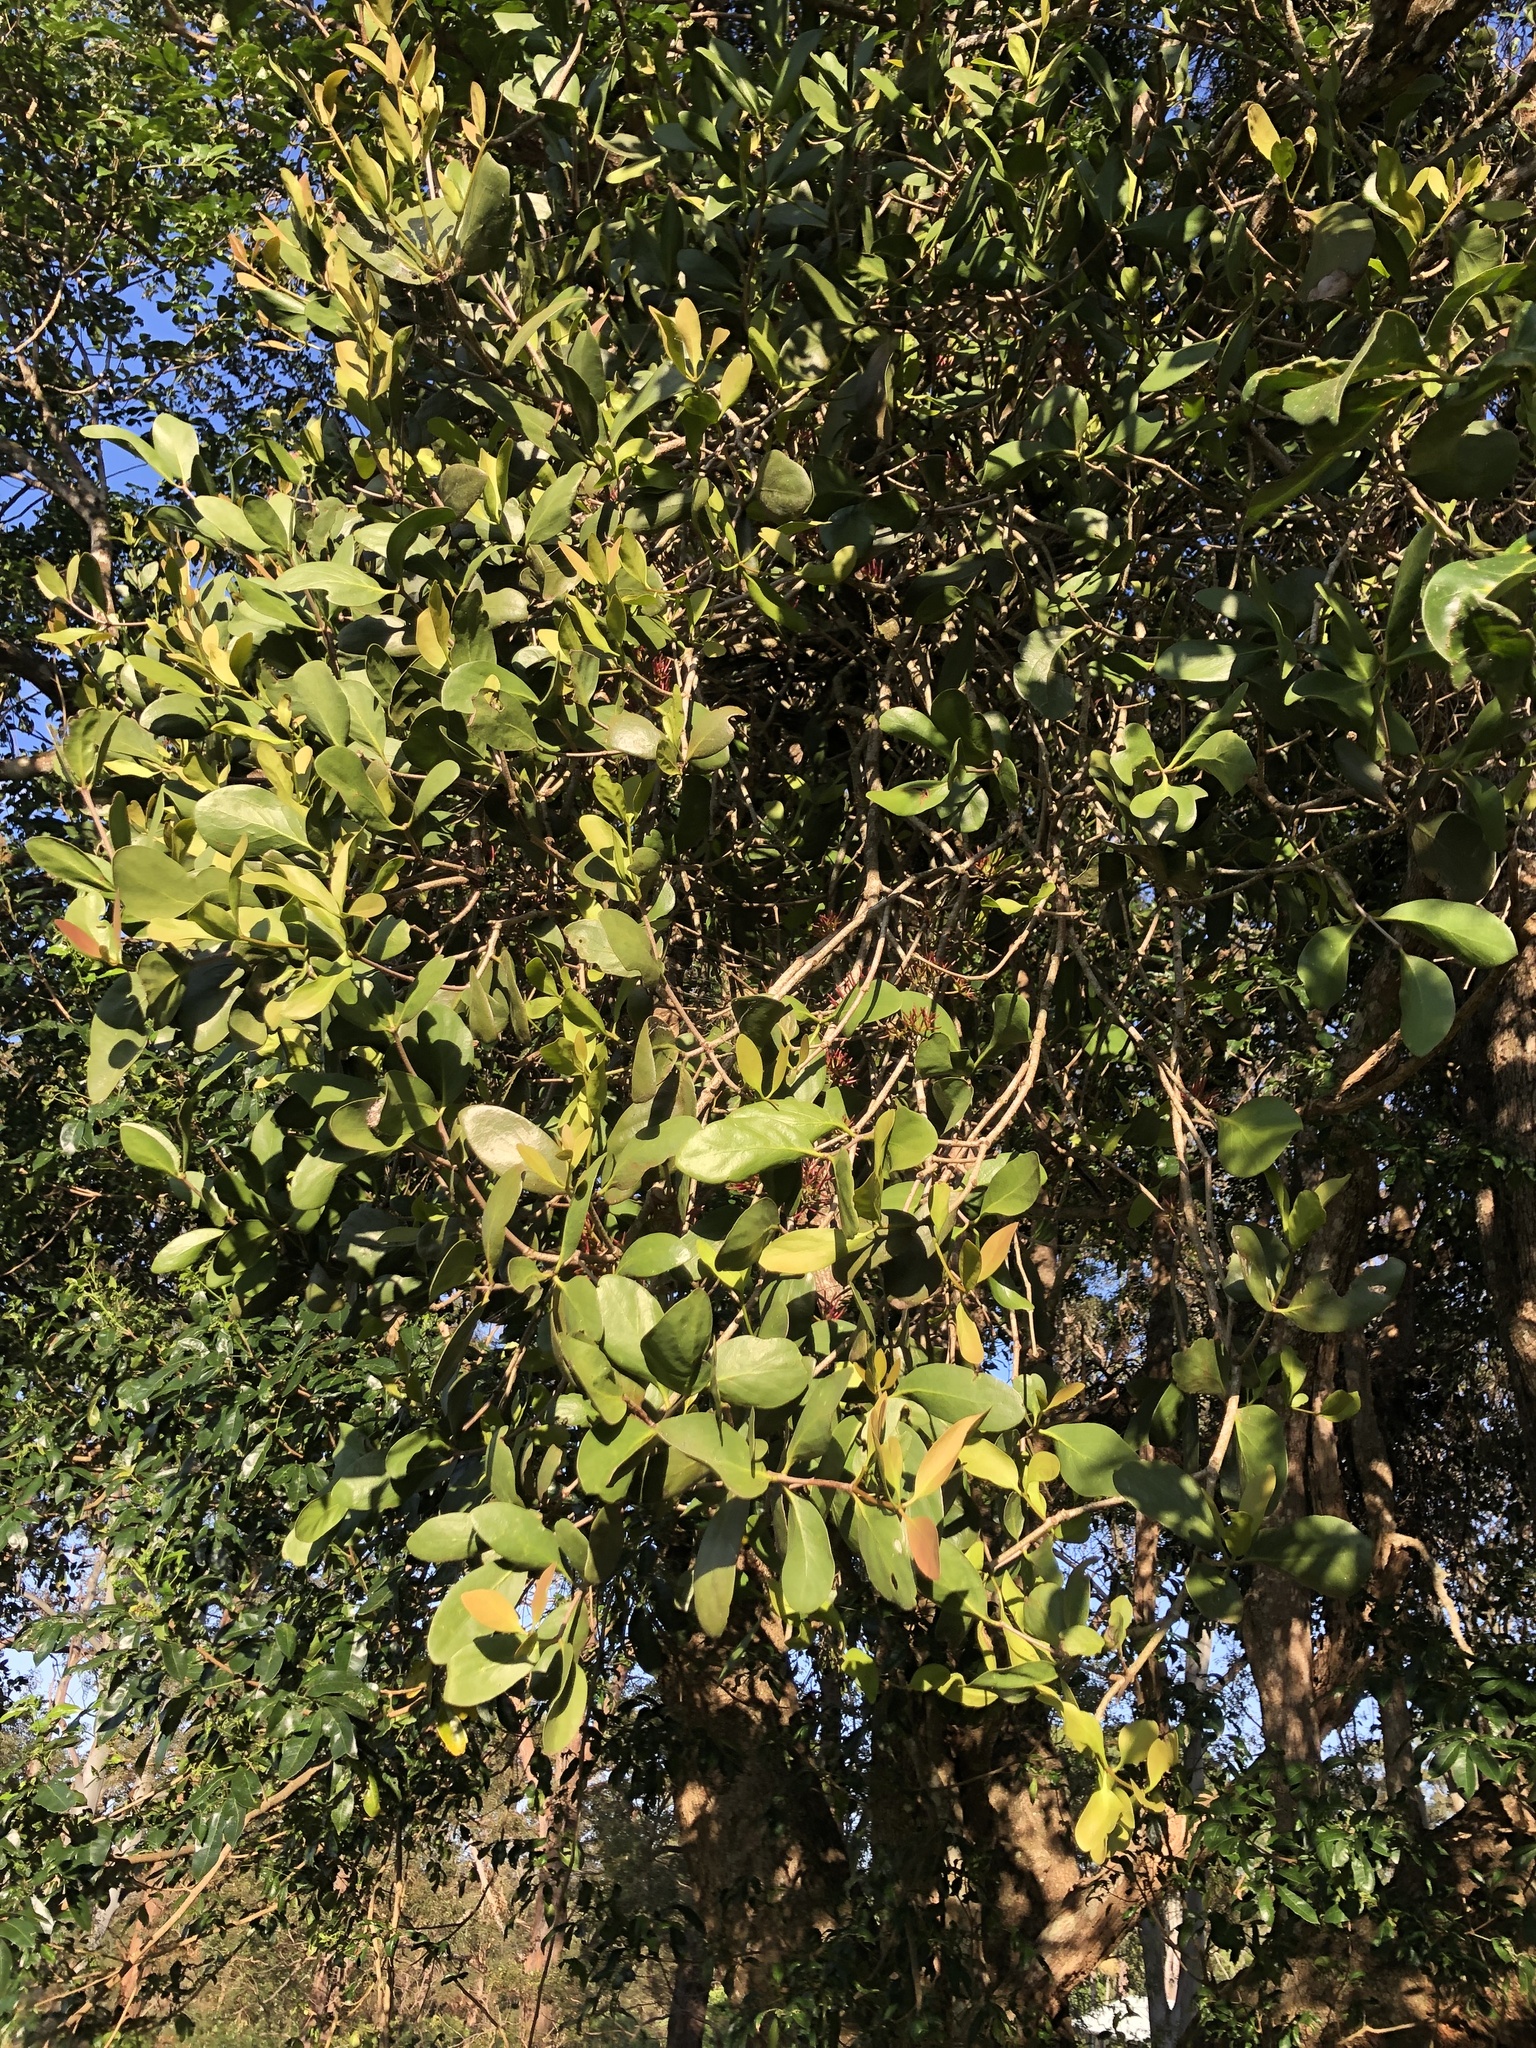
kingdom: Plantae
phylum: Tracheophyta
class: Magnoliopsida
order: Santalales
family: Loranthaceae
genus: Amyema
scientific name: Amyema plicatula
